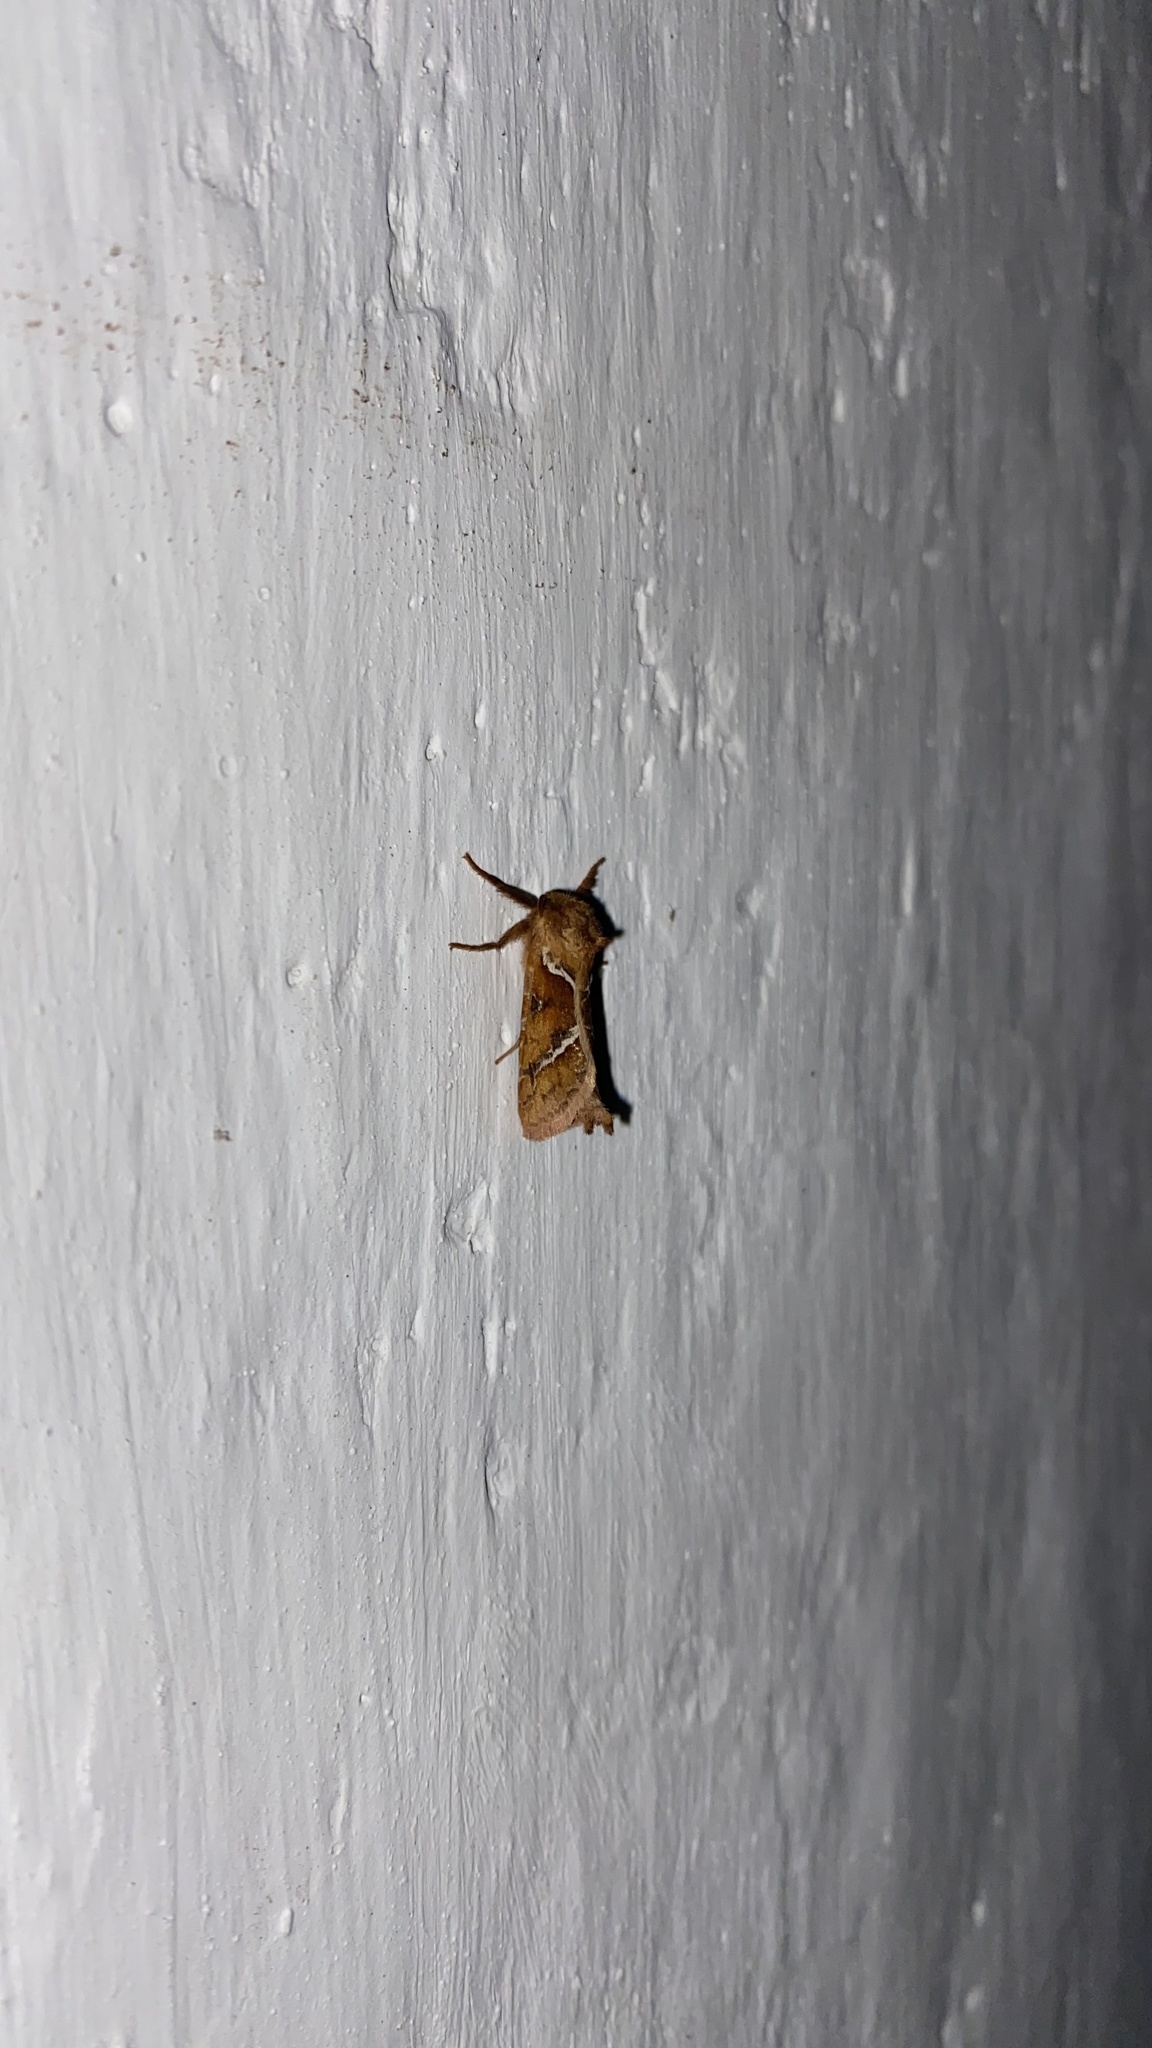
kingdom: Animalia
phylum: Arthropoda
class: Insecta
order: Lepidoptera
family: Hepialidae
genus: Triodia
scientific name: Triodia sylvina
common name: Orange swift
